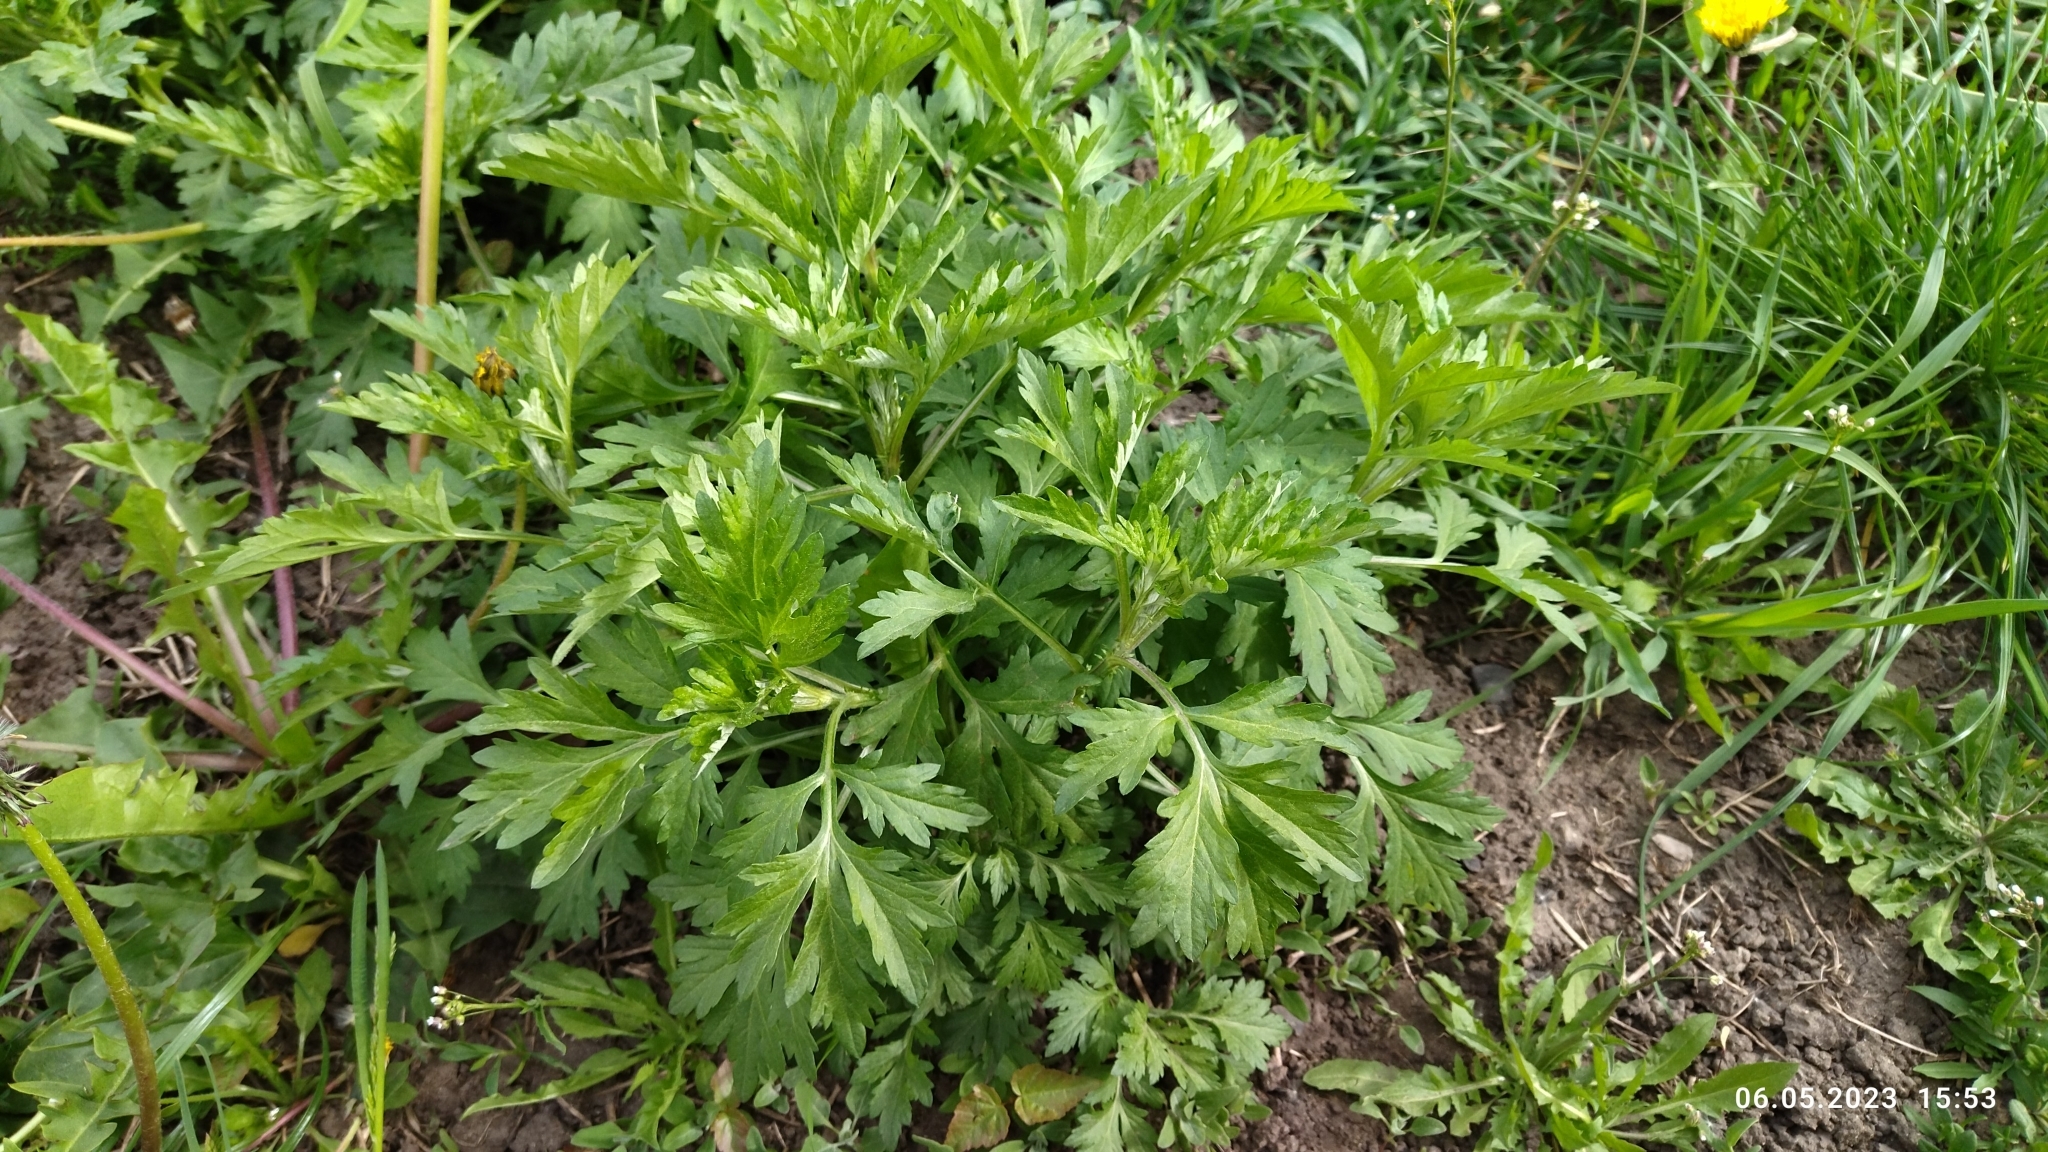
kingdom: Plantae
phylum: Tracheophyta
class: Magnoliopsida
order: Asterales
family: Asteraceae
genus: Artemisia
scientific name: Artemisia vulgaris
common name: Mugwort
